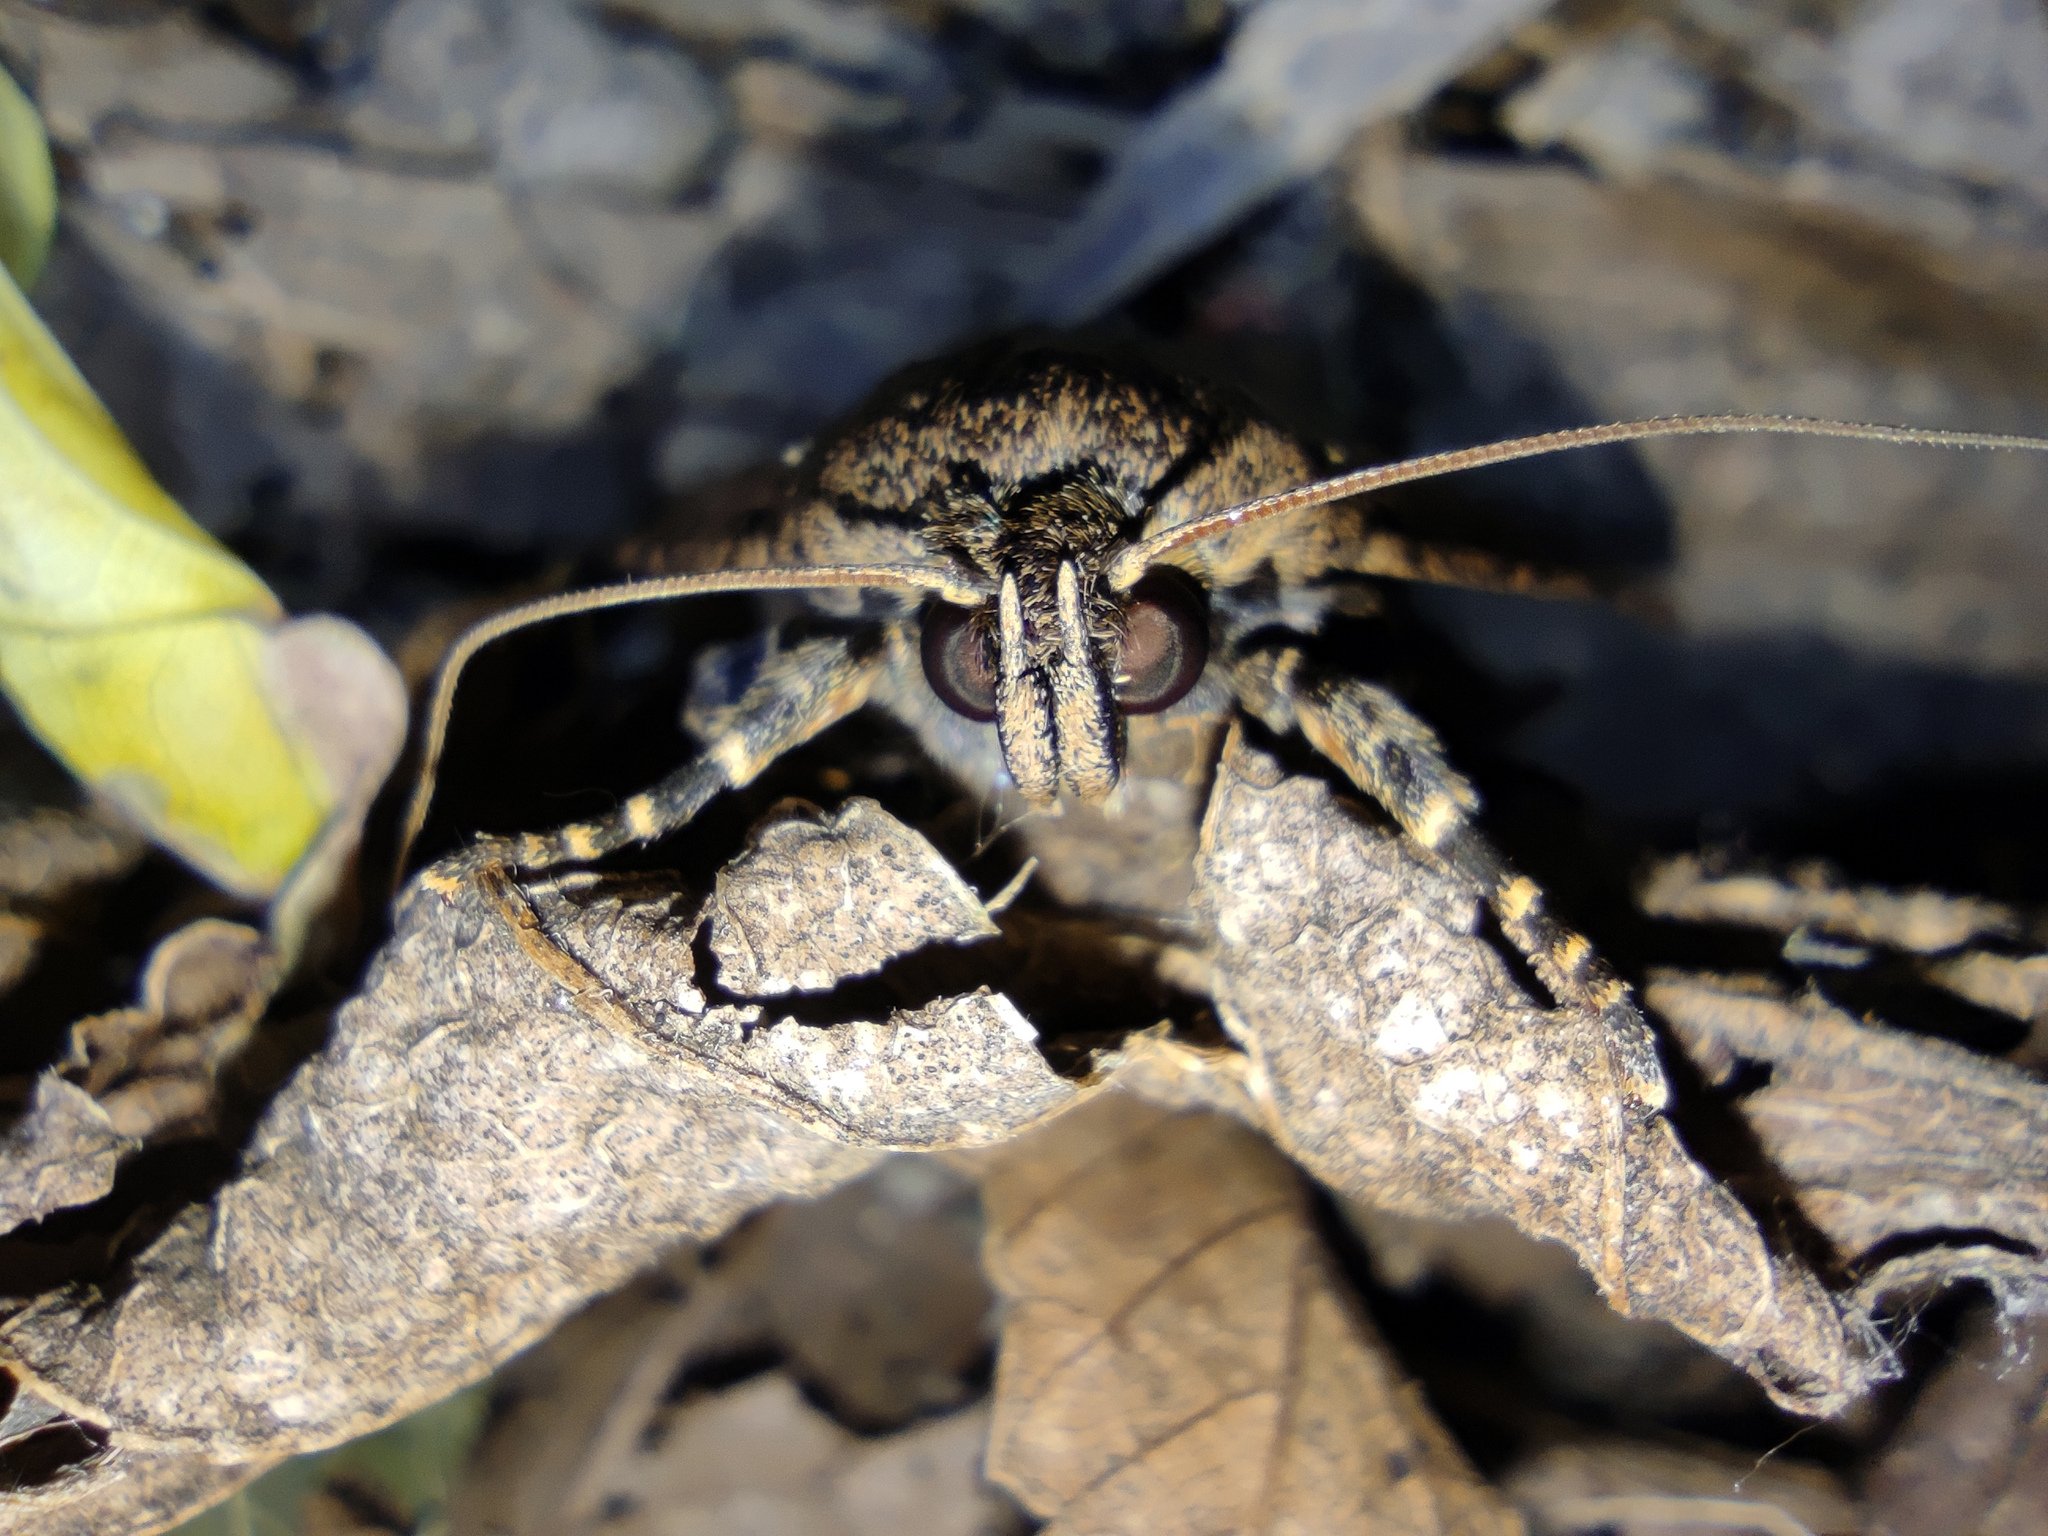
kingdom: Animalia
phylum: Arthropoda
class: Insecta
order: Lepidoptera
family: Noctuidae
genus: Amphipyra
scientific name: Amphipyra pyramidea
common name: Copper underwing
